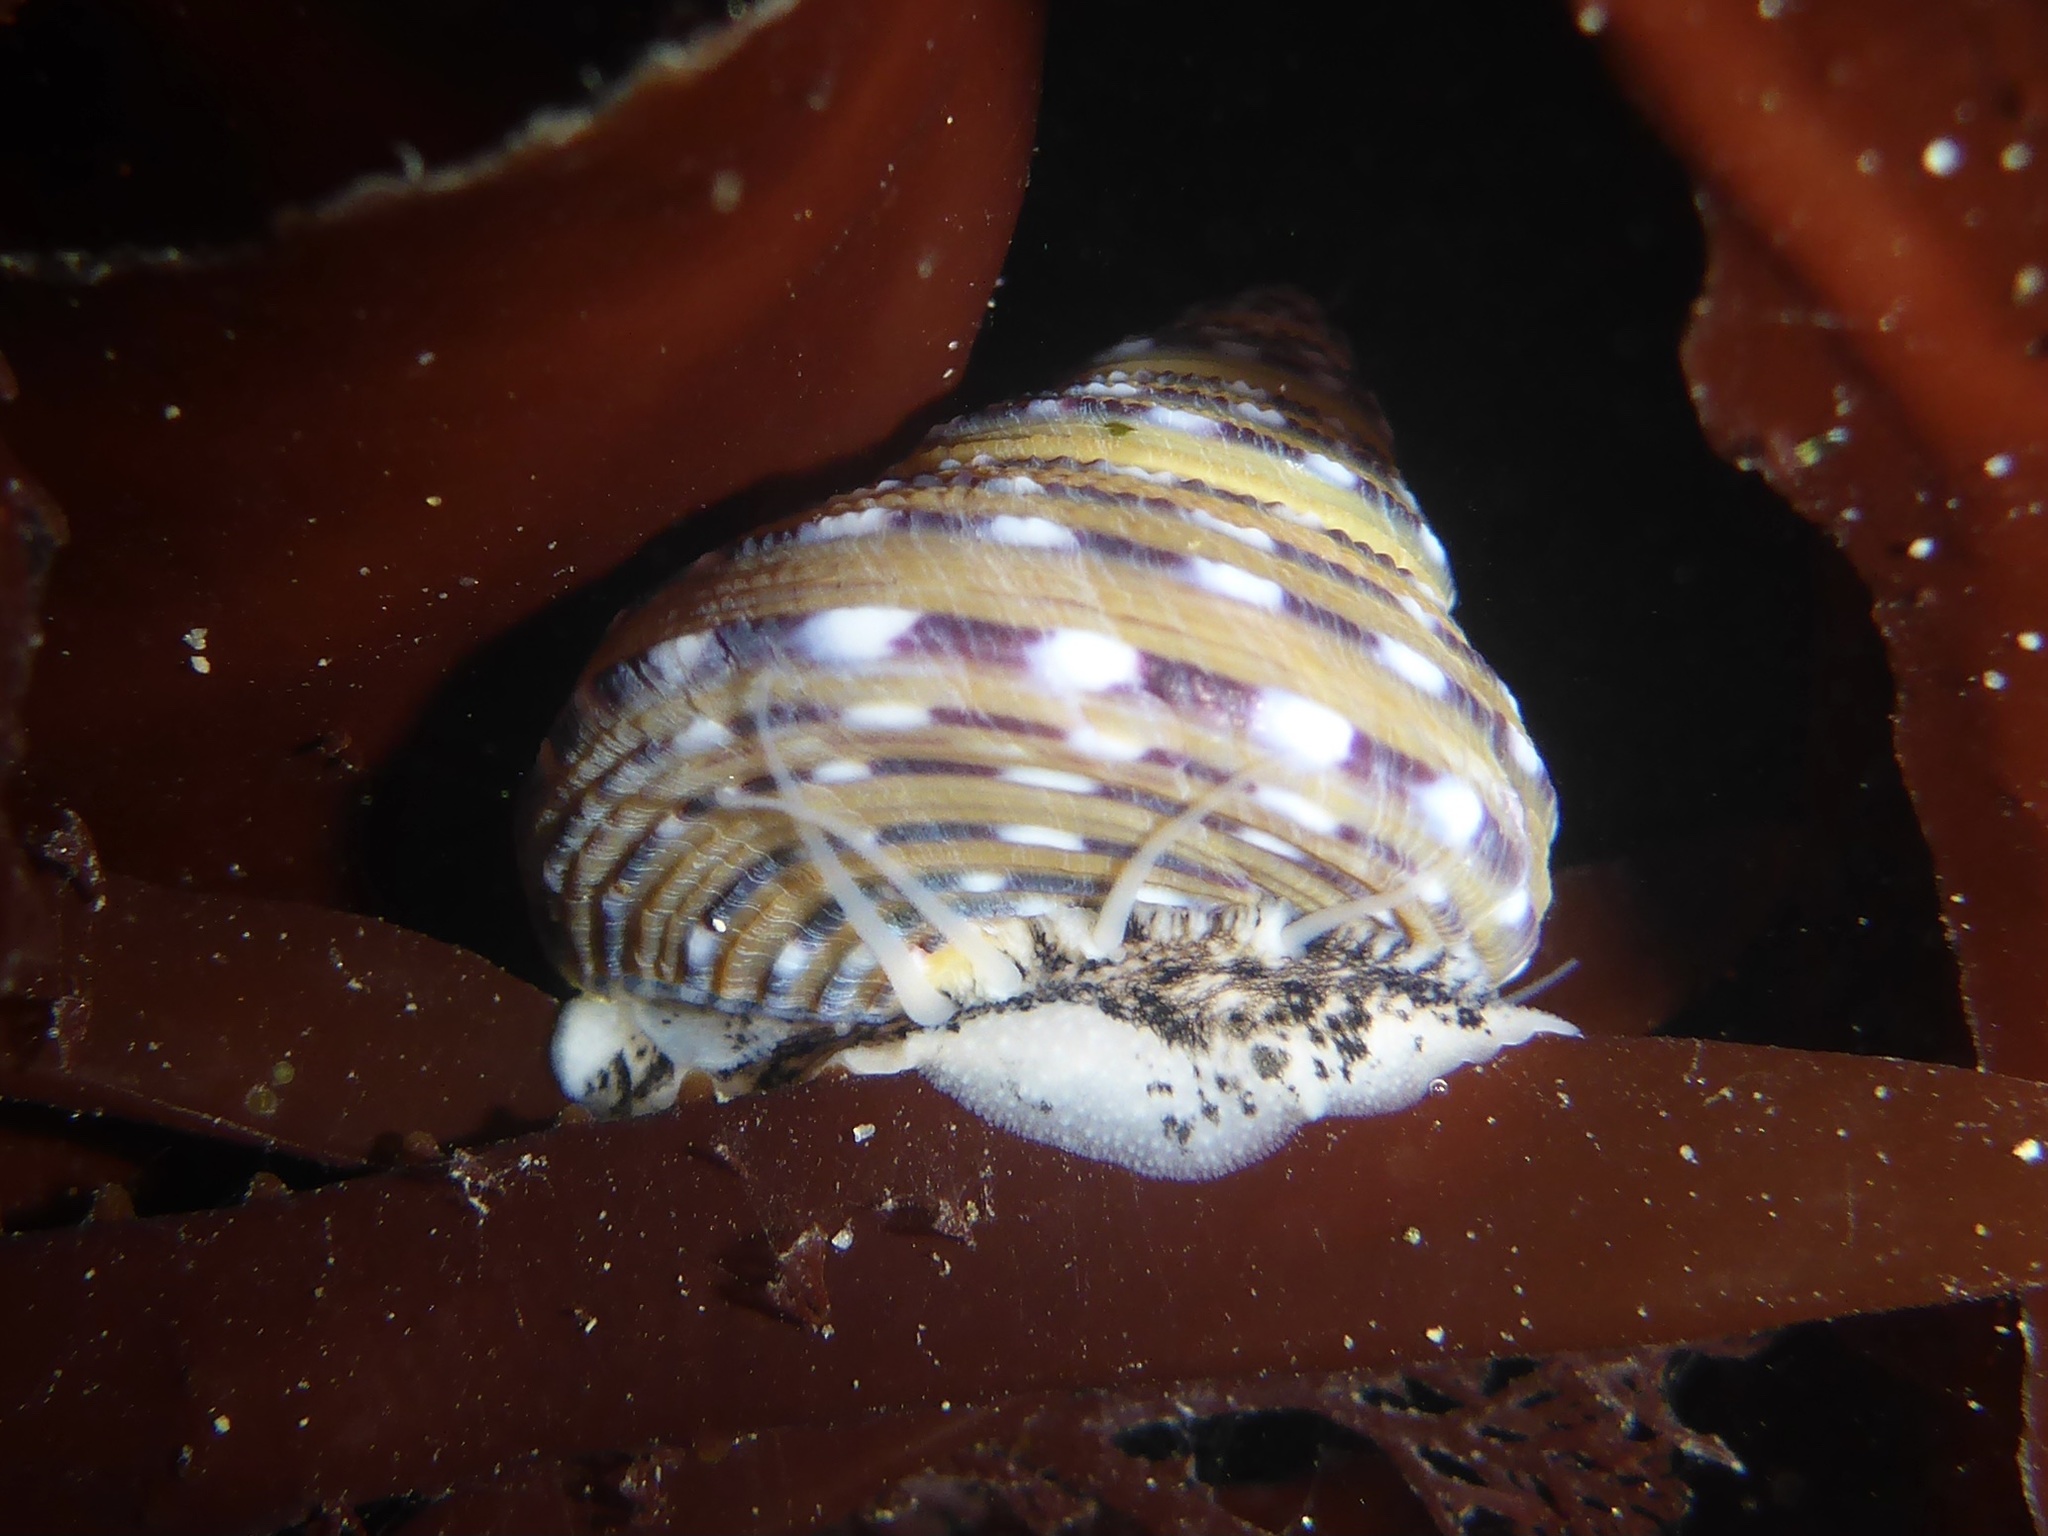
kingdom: Animalia
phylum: Mollusca
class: Gastropoda
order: Trochida
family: Calliostomatidae
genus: Calliostoma
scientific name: Calliostoma tricolor
